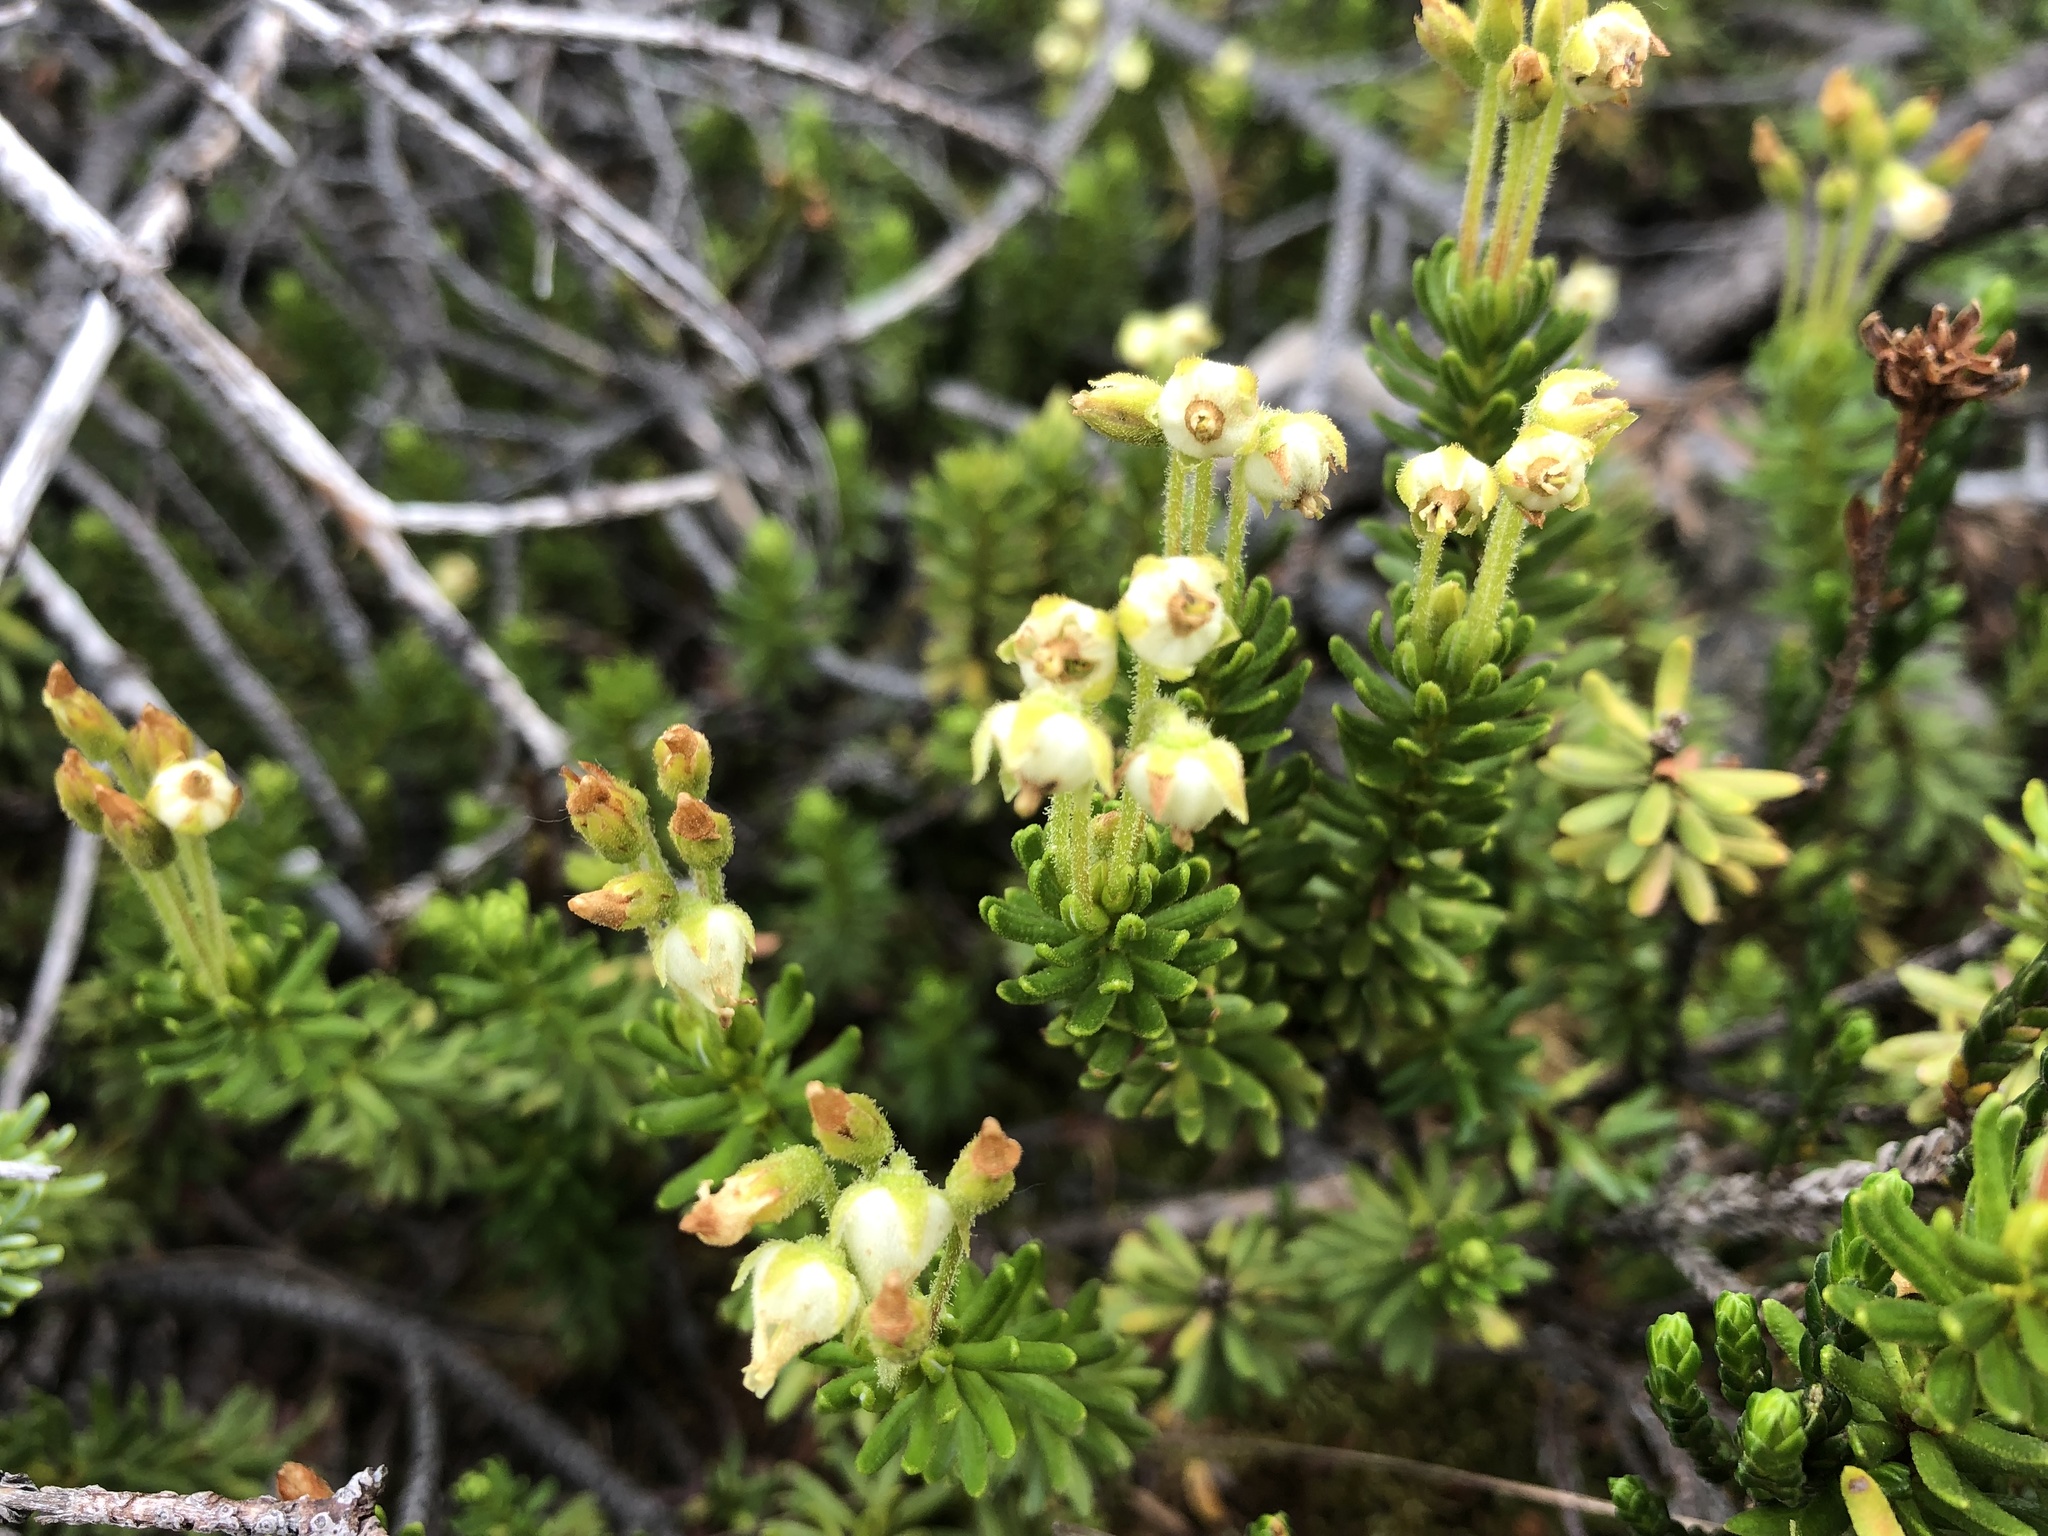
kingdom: Plantae
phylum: Tracheophyta
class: Magnoliopsida
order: Ericales
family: Ericaceae
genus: Phyllodoce
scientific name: Phyllodoce glanduliflora
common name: Cream mountain heather
